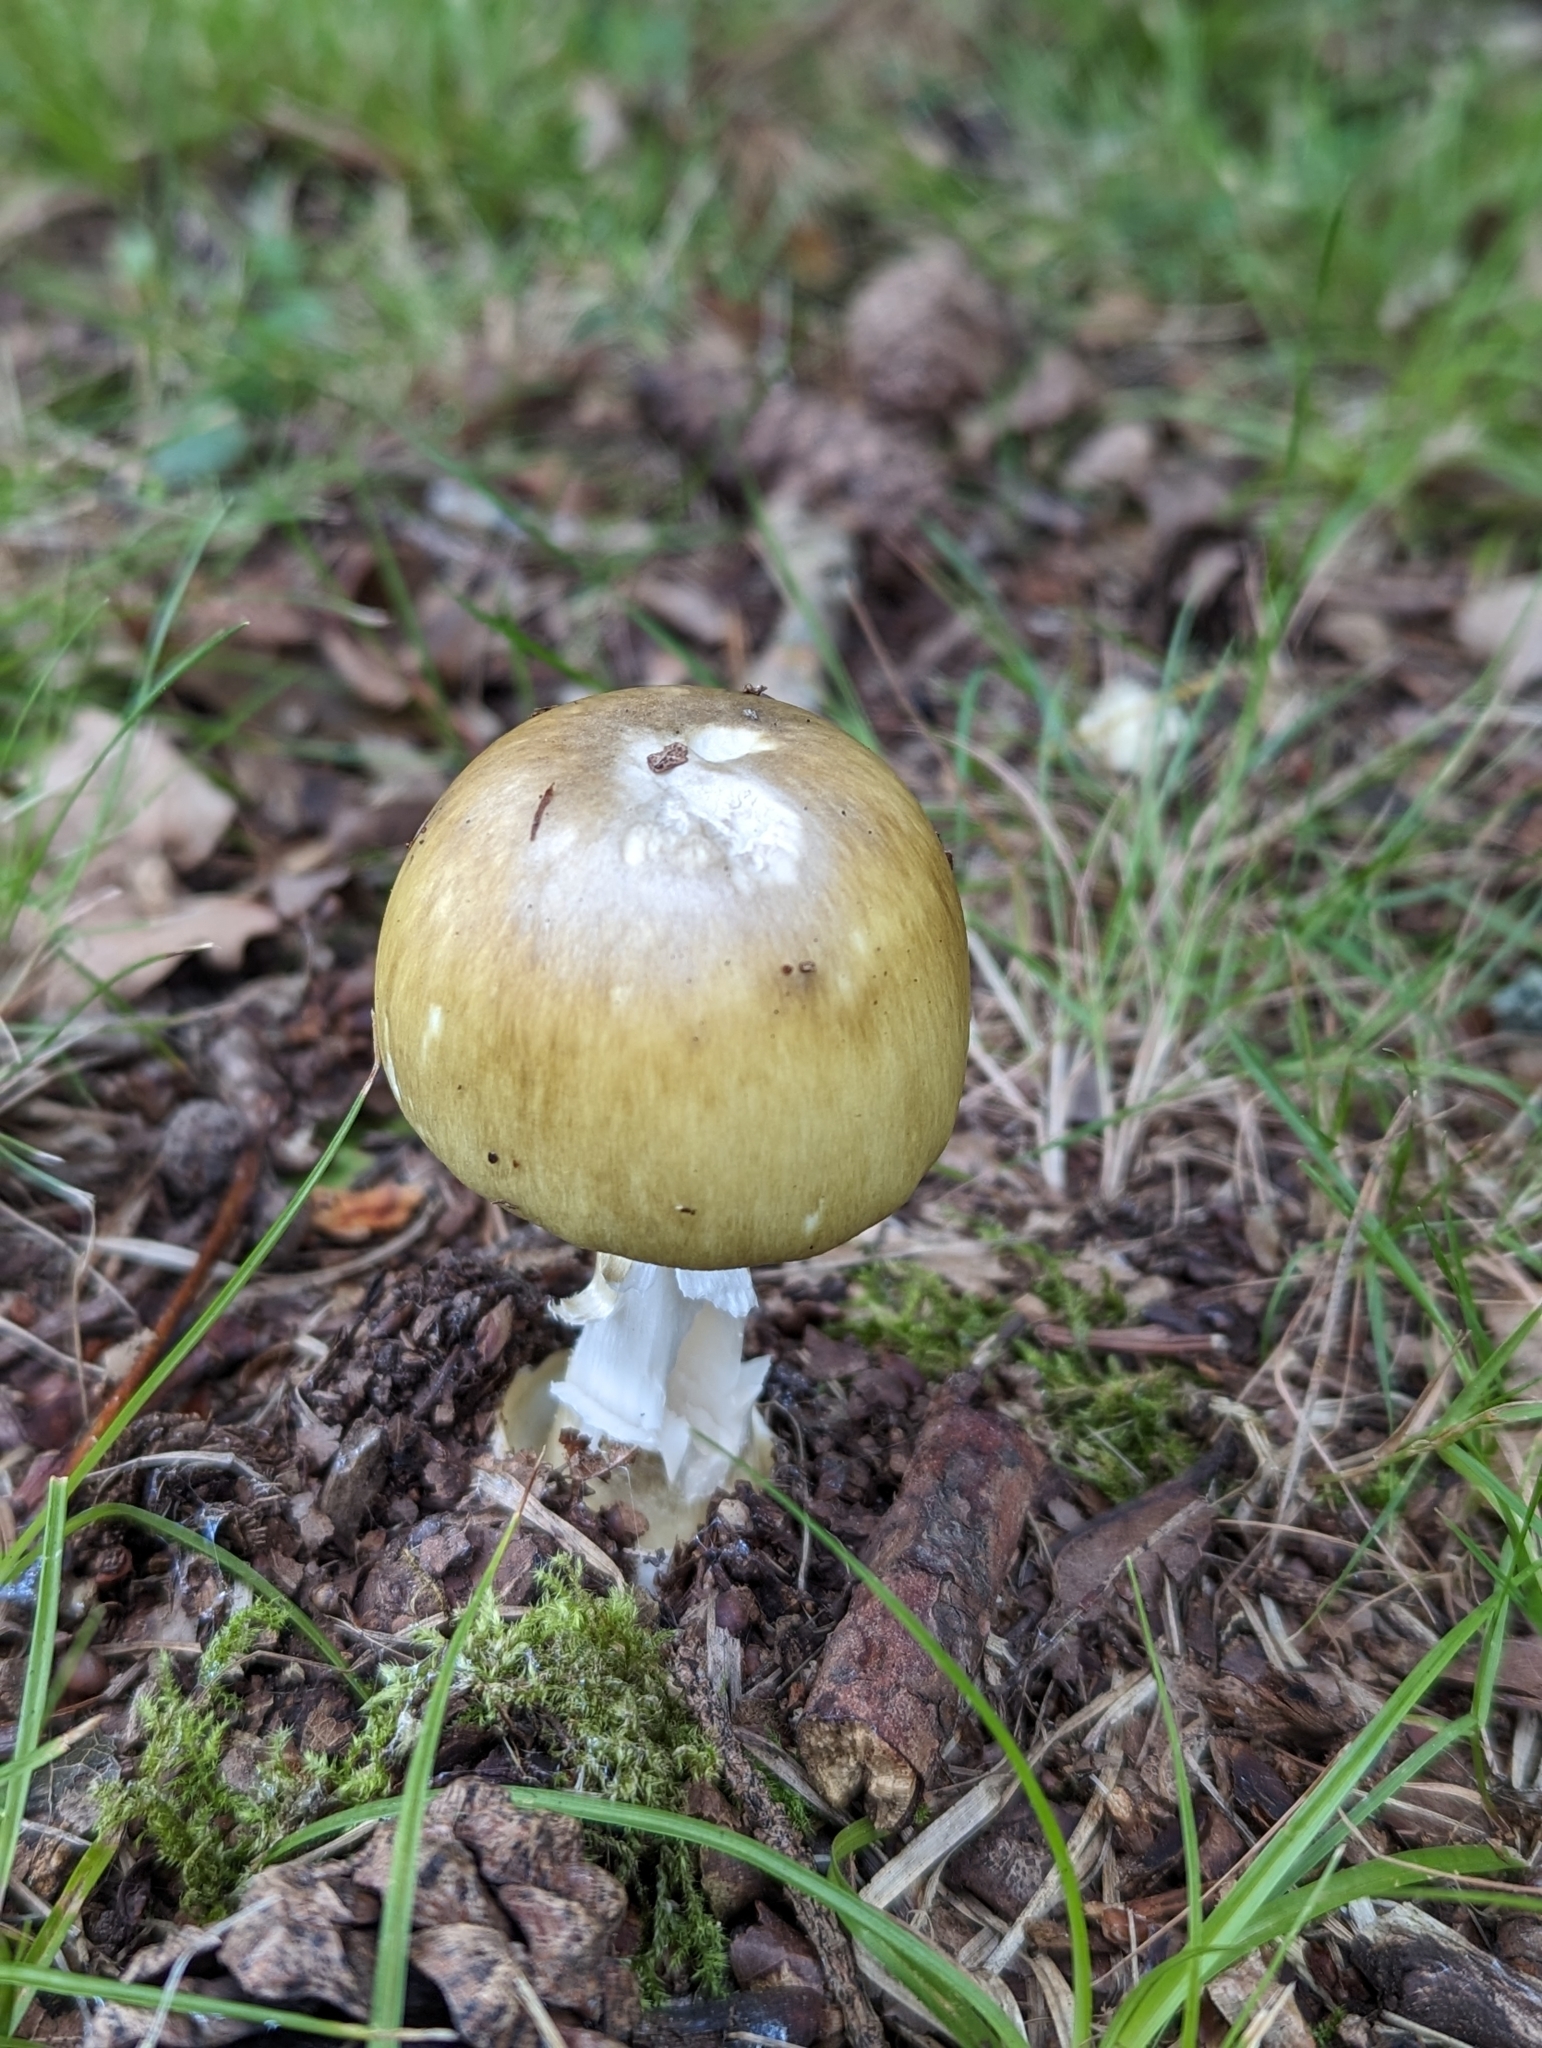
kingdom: Fungi
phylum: Basidiomycota
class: Agaricomycetes
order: Agaricales
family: Amanitaceae
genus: Amanita
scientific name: Amanita phalloides
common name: Death cap
